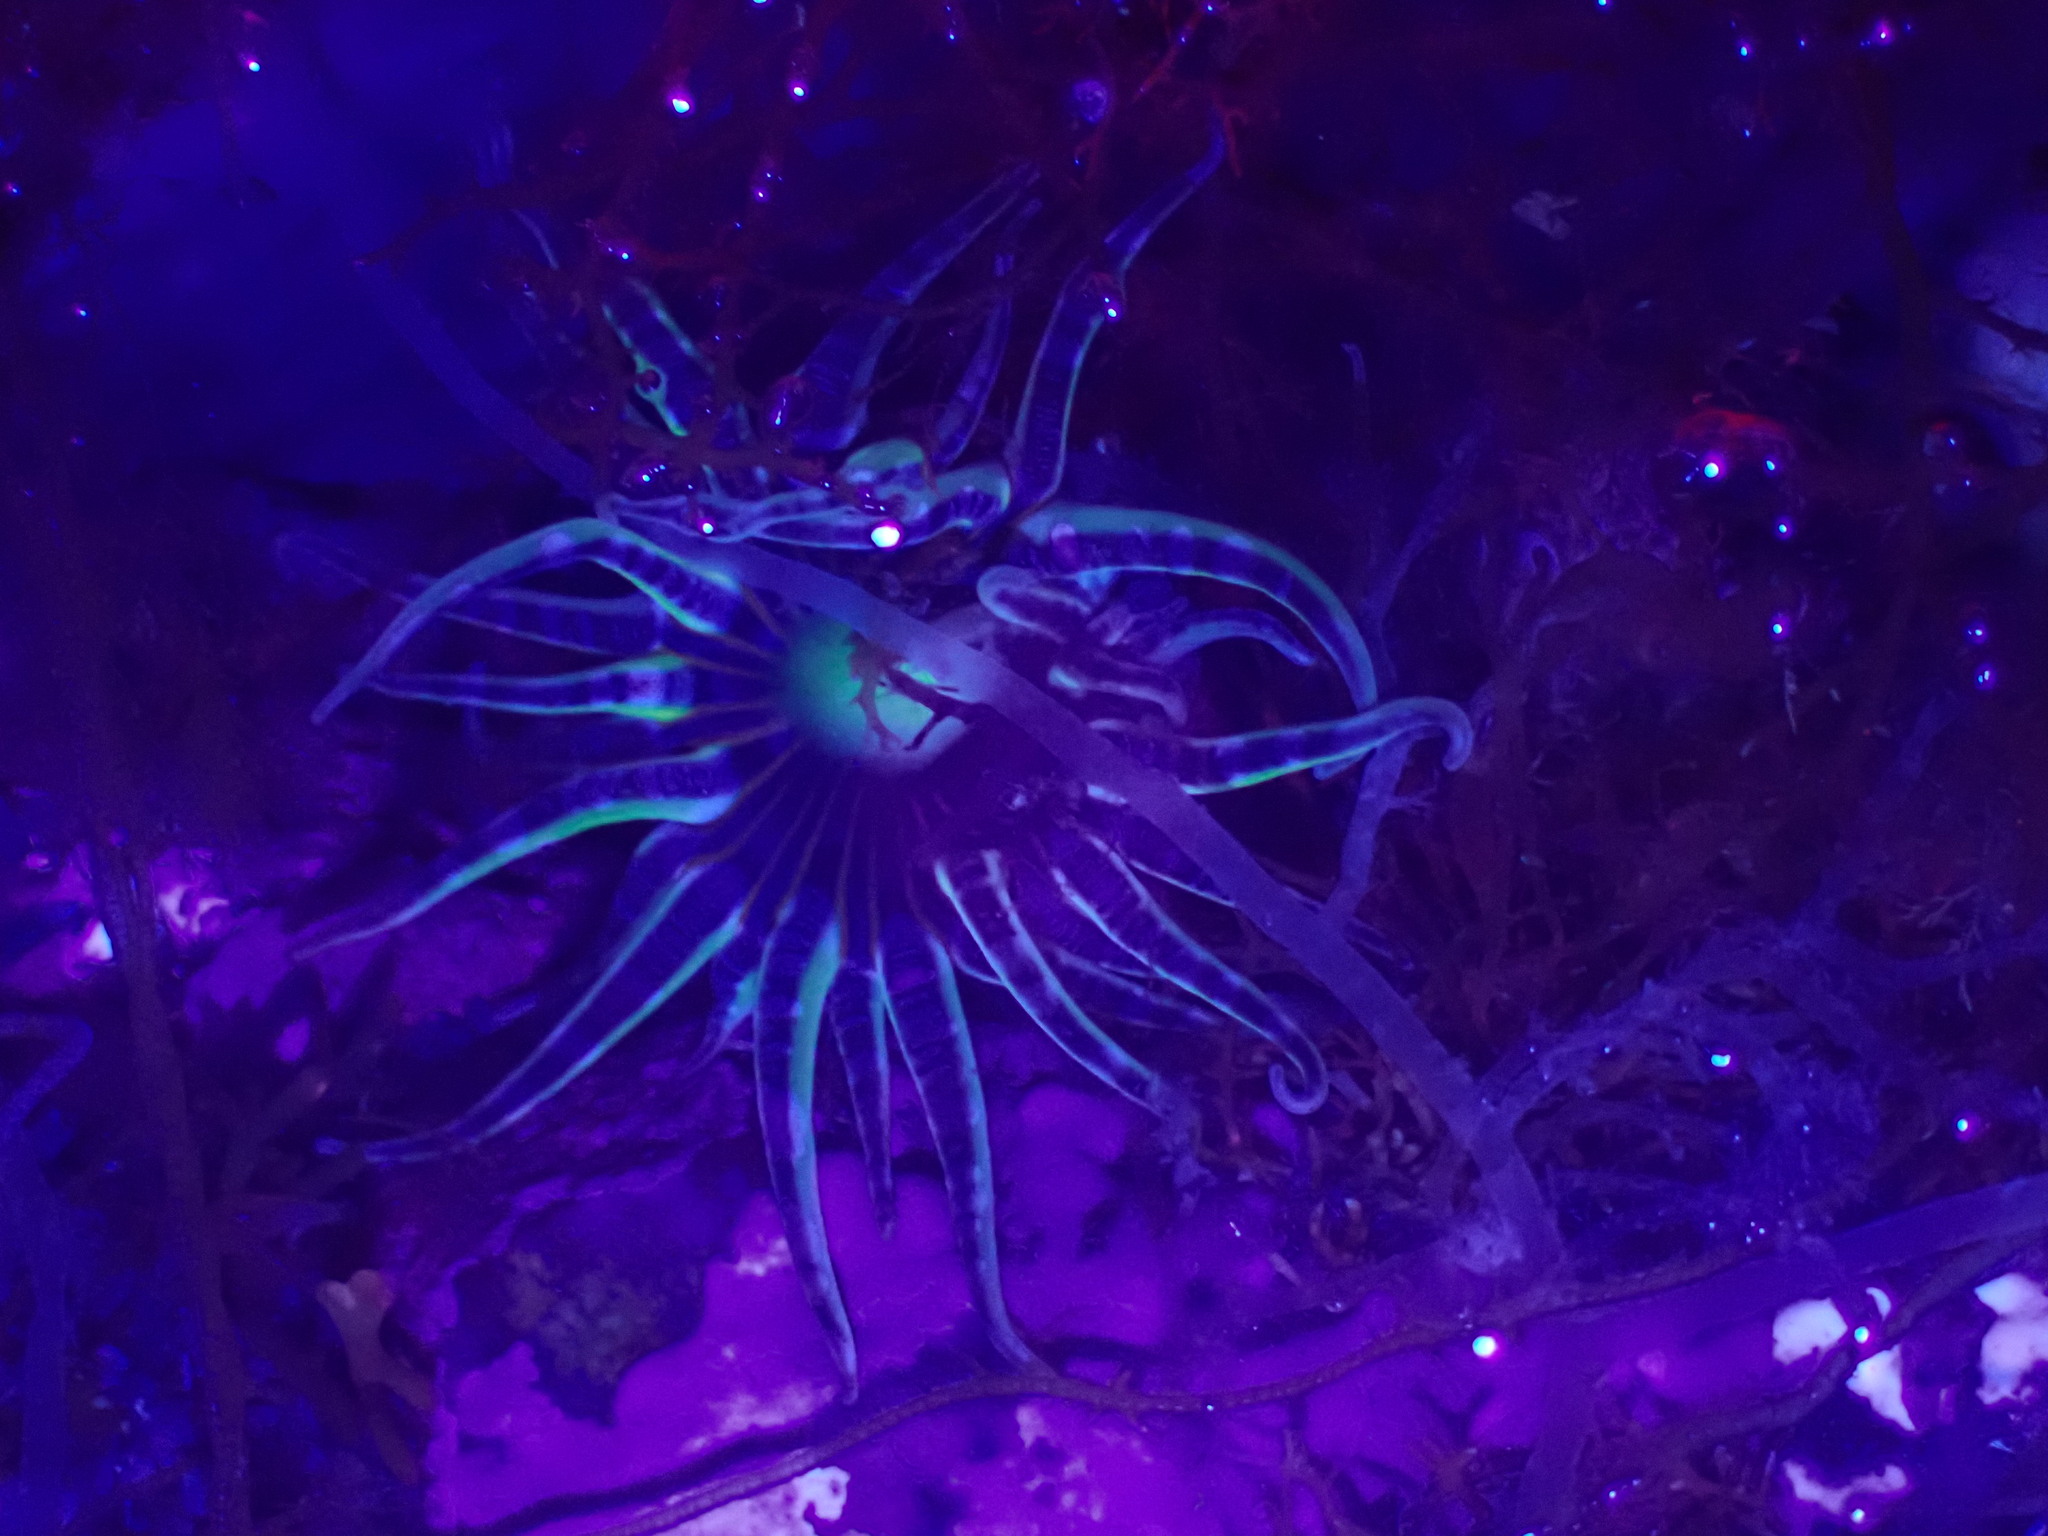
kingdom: Animalia
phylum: Cnidaria
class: Anthozoa
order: Actiniaria
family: Actiniidae
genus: Bunodactis
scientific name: Bunodactis verrucosa
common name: Gem anemone
